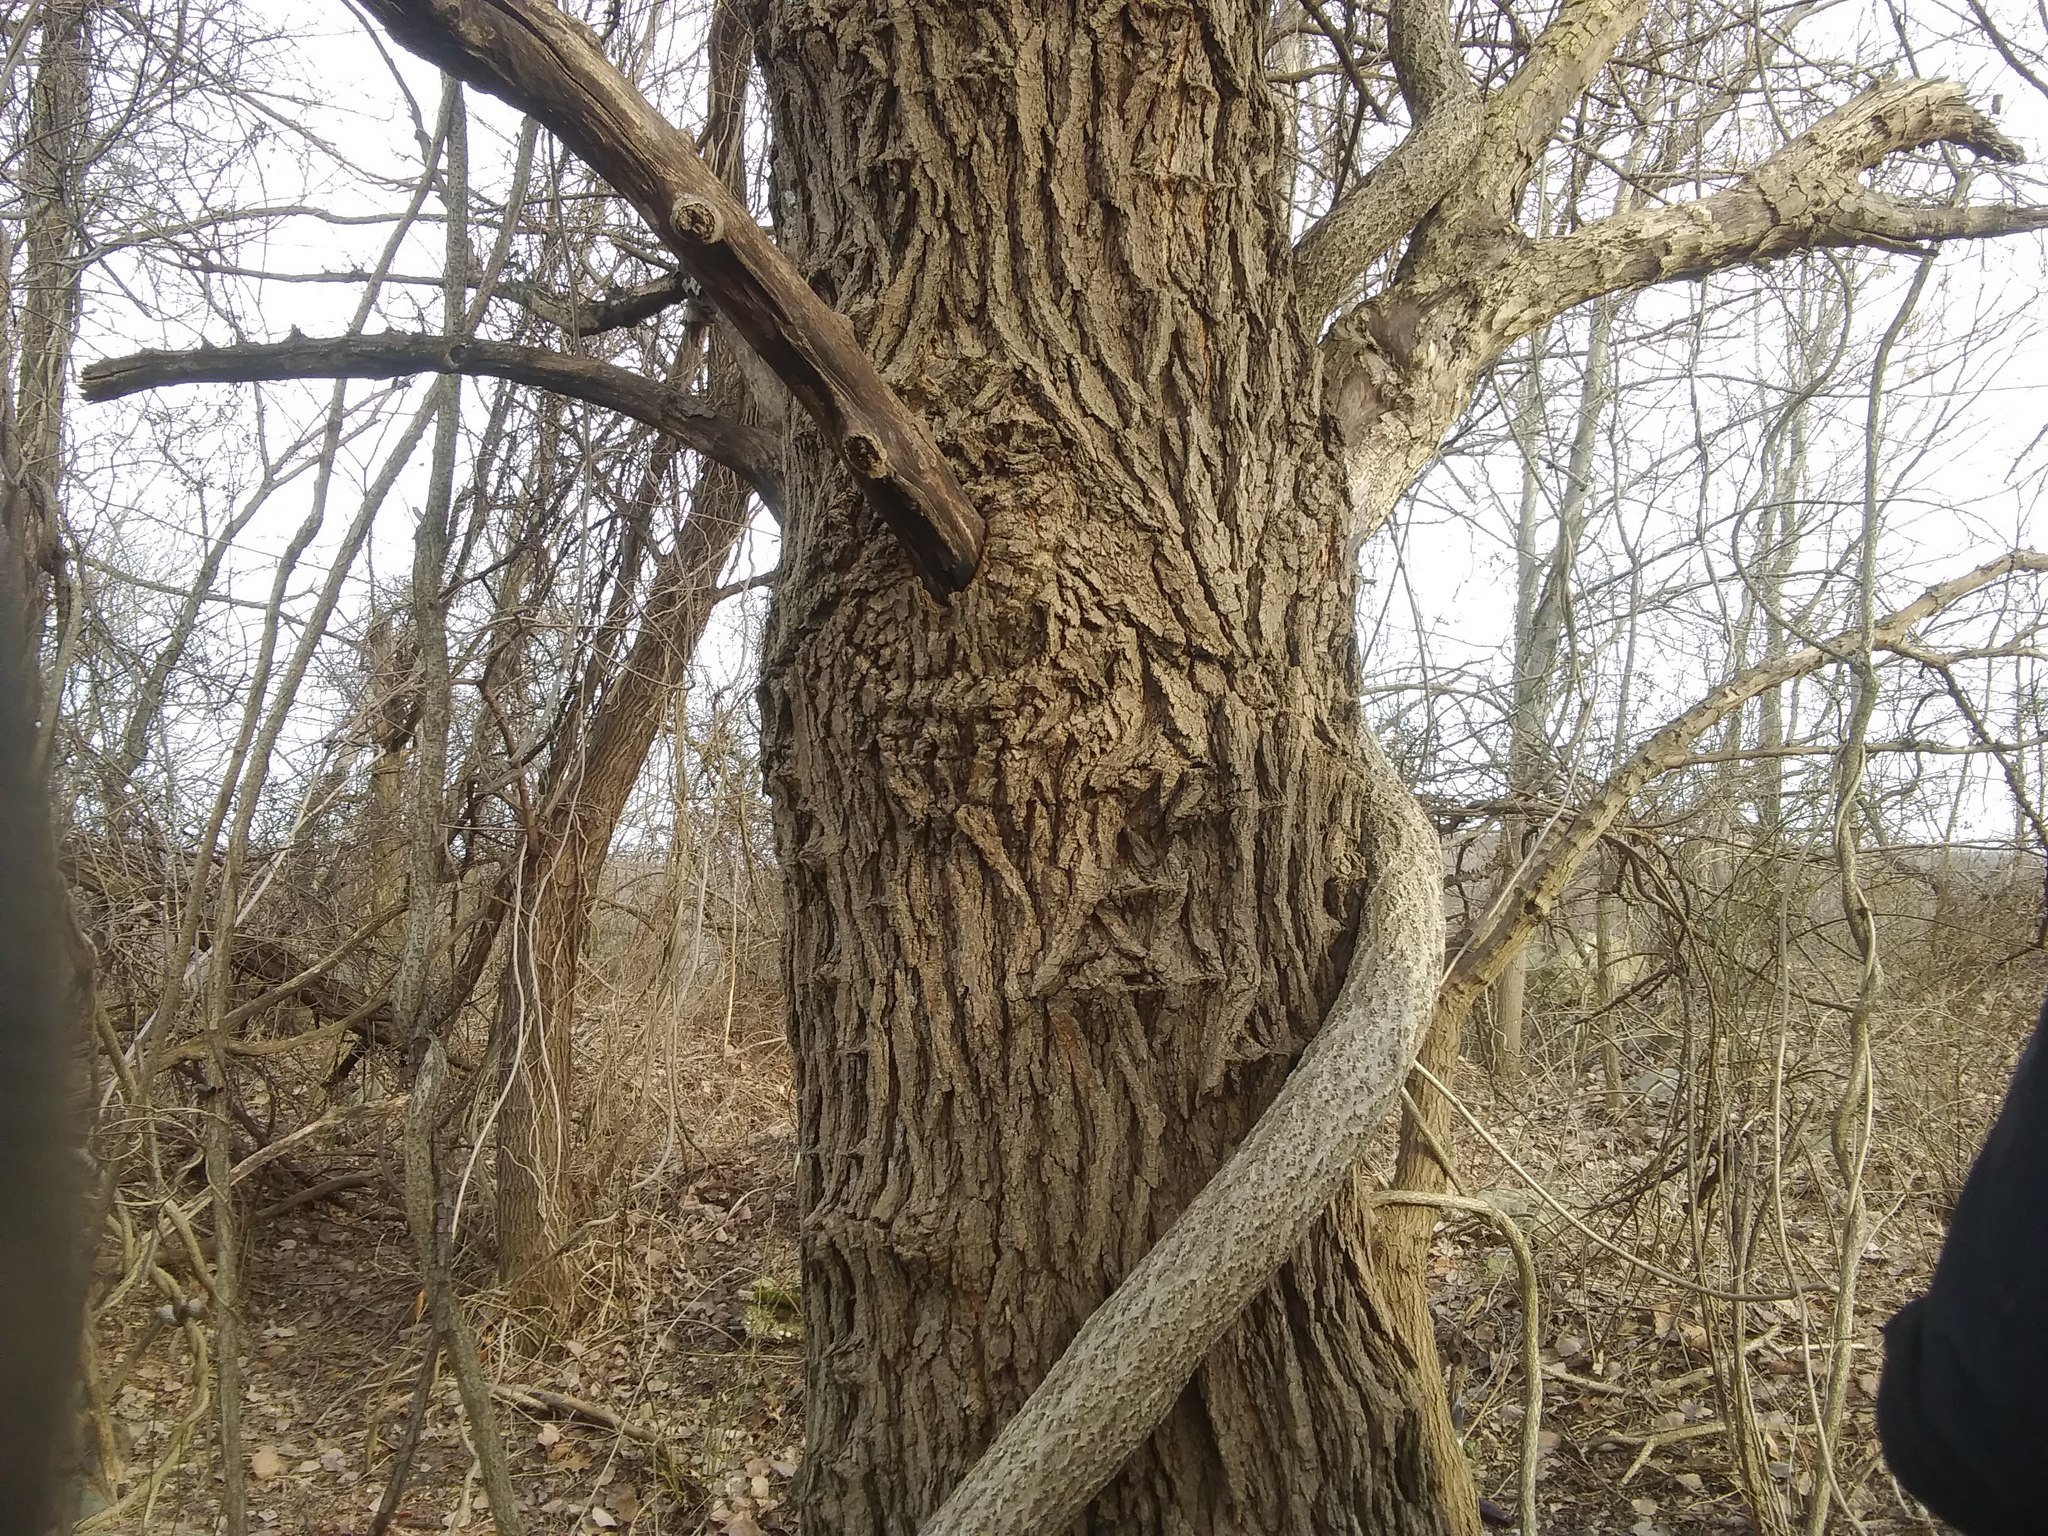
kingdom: Plantae
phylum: Tracheophyta
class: Magnoliopsida
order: Celastrales
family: Celastraceae
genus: Celastrus
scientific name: Celastrus orbiculatus
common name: Oriental bittersweet
